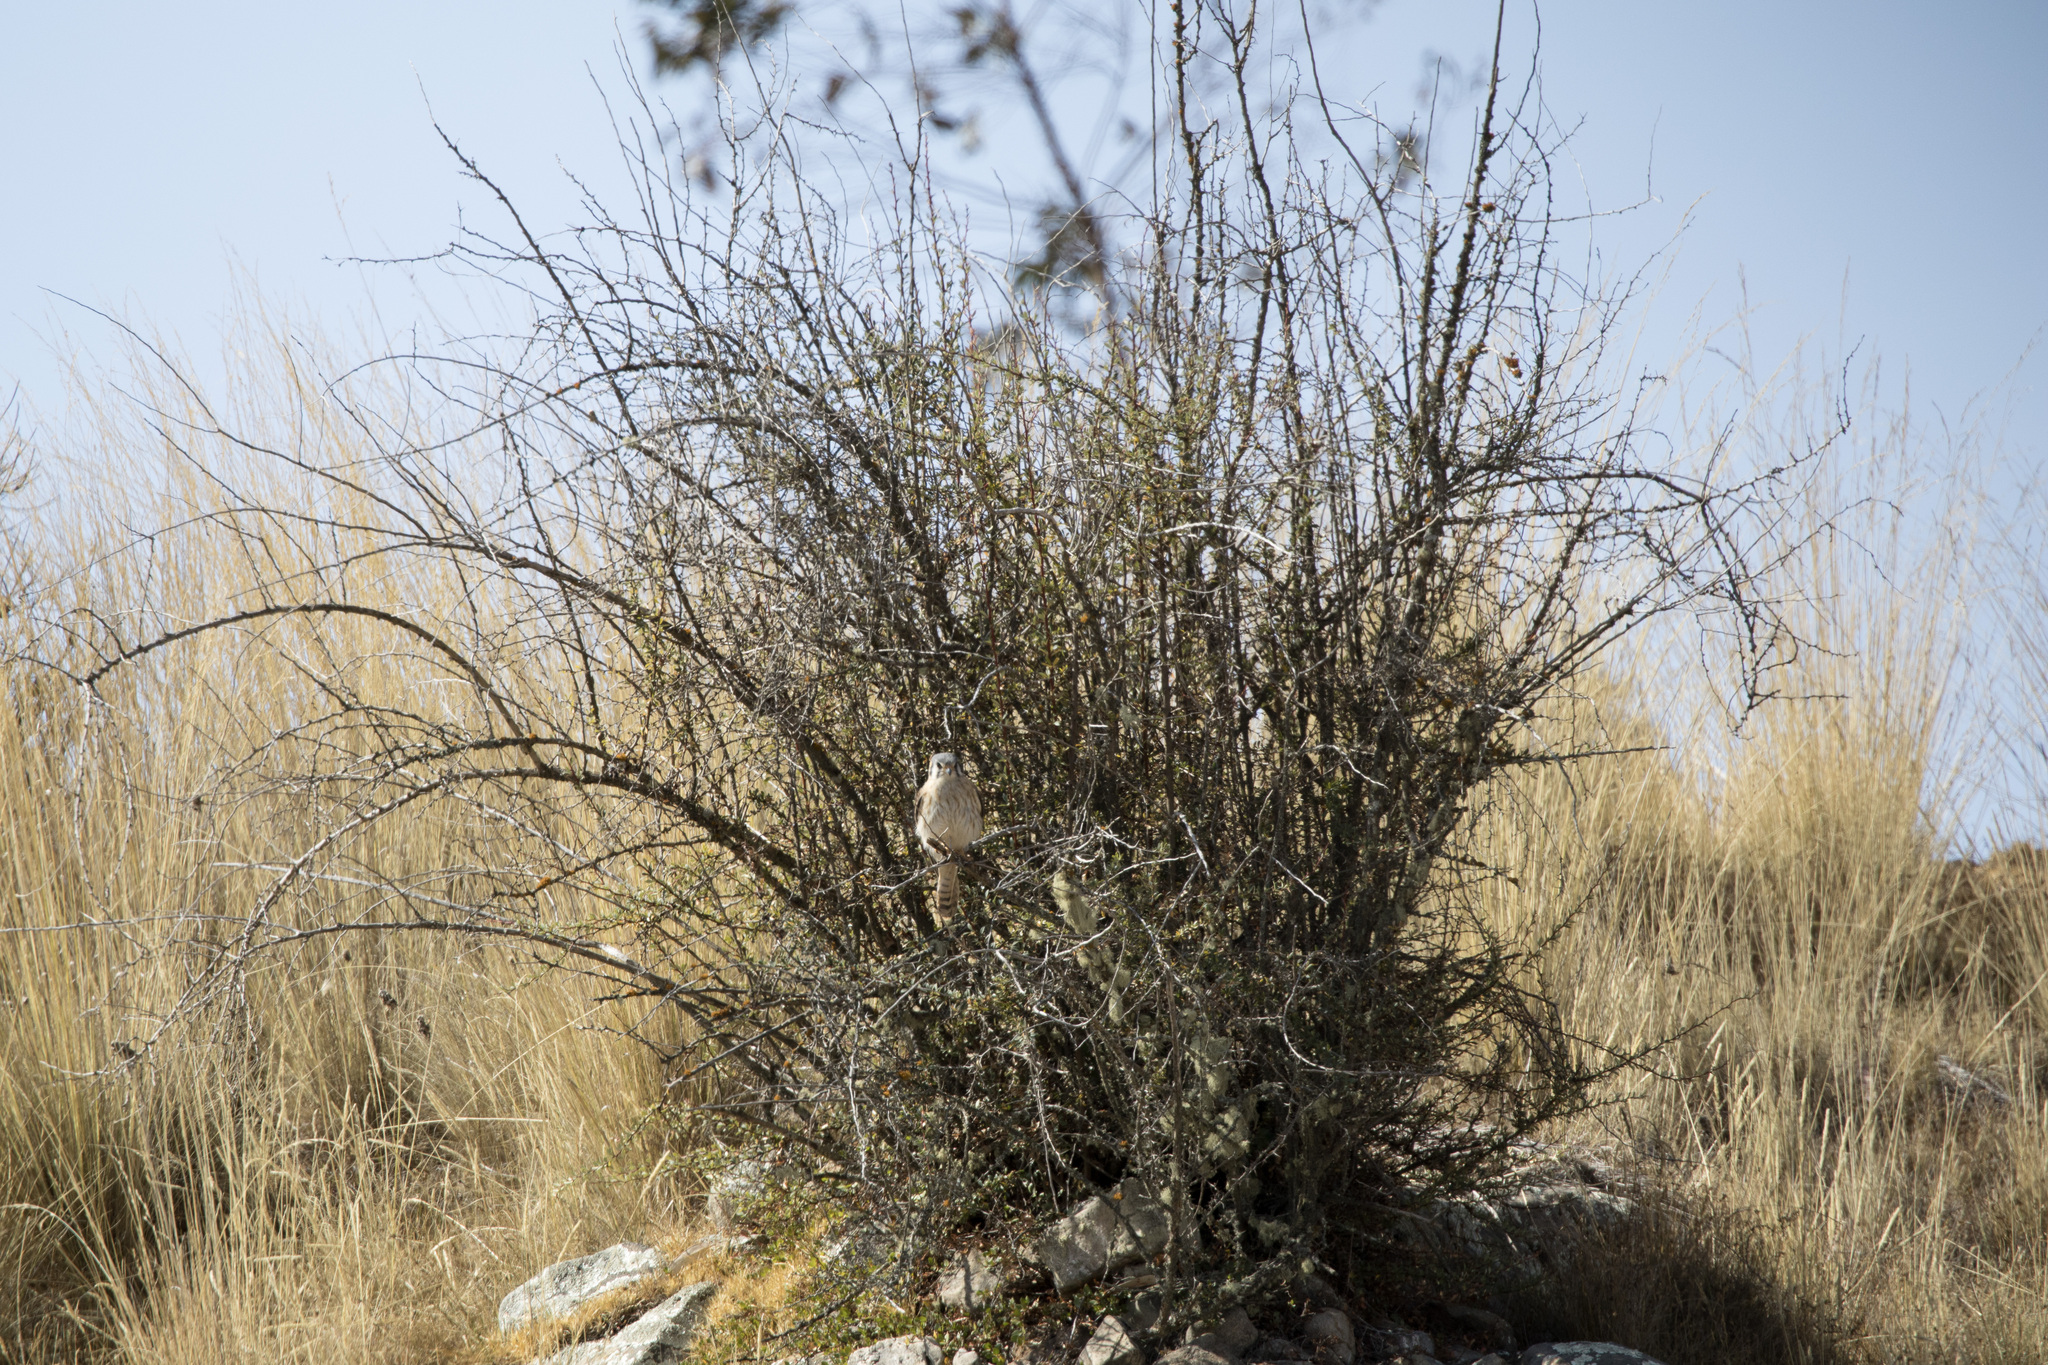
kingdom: Animalia
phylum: Chordata
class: Aves
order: Falconiformes
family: Falconidae
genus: Falco
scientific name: Falco sparverius
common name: American kestrel
